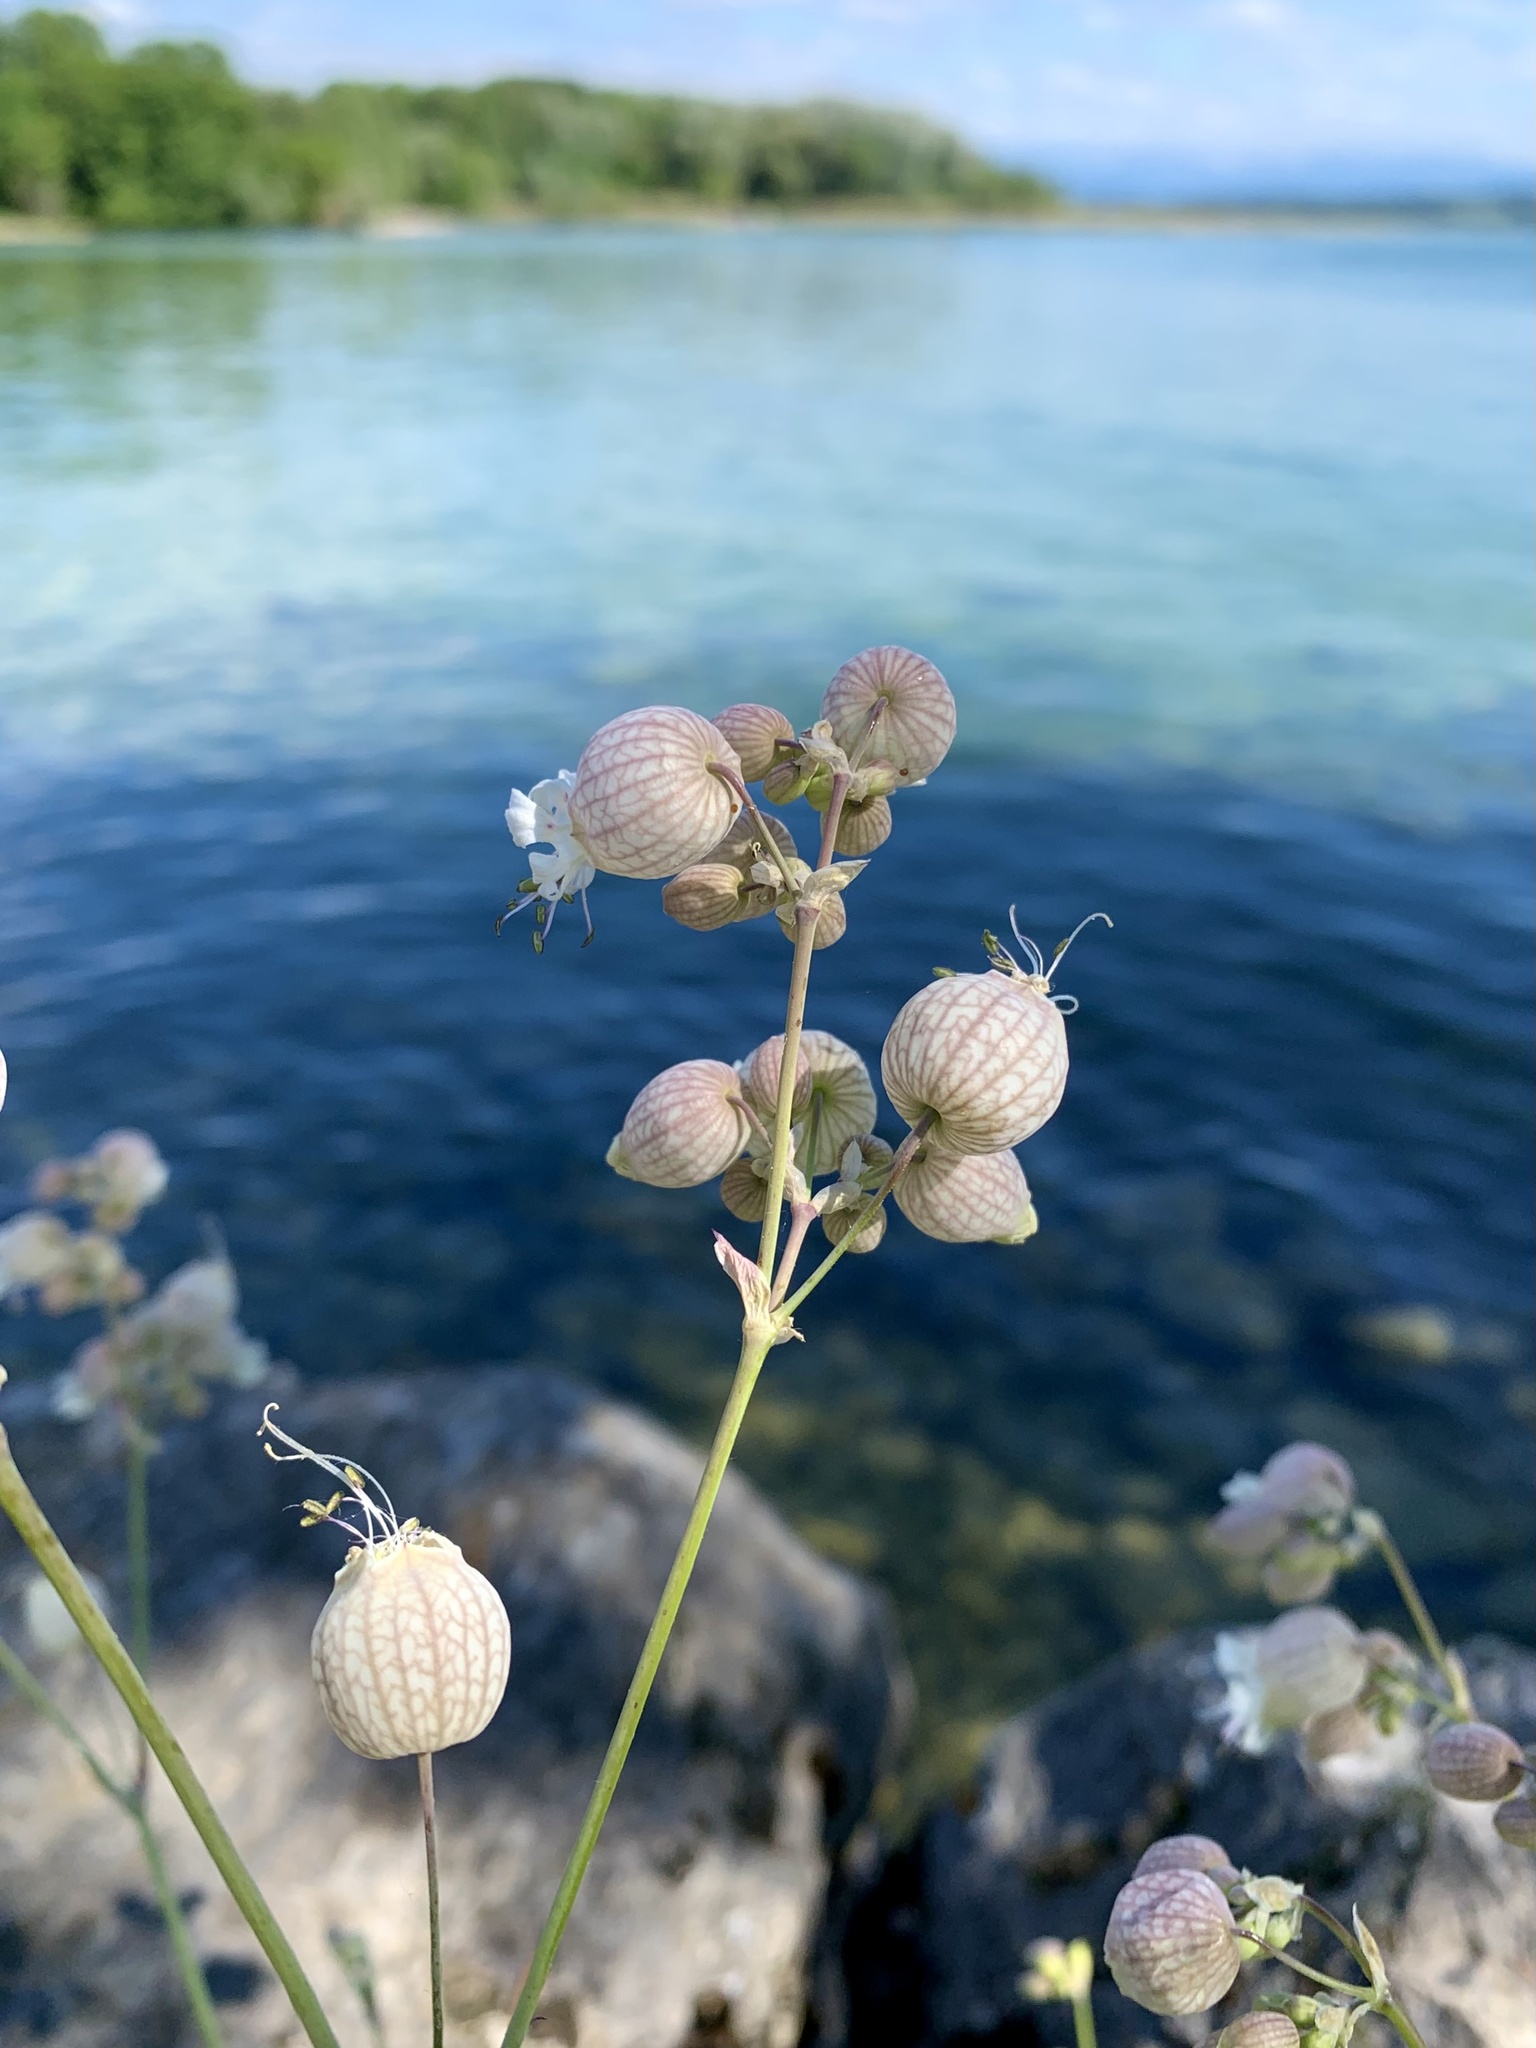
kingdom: Plantae
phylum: Tracheophyta
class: Magnoliopsida
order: Caryophyllales
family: Caryophyllaceae
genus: Silene
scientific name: Silene vulgaris
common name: Bladder campion
